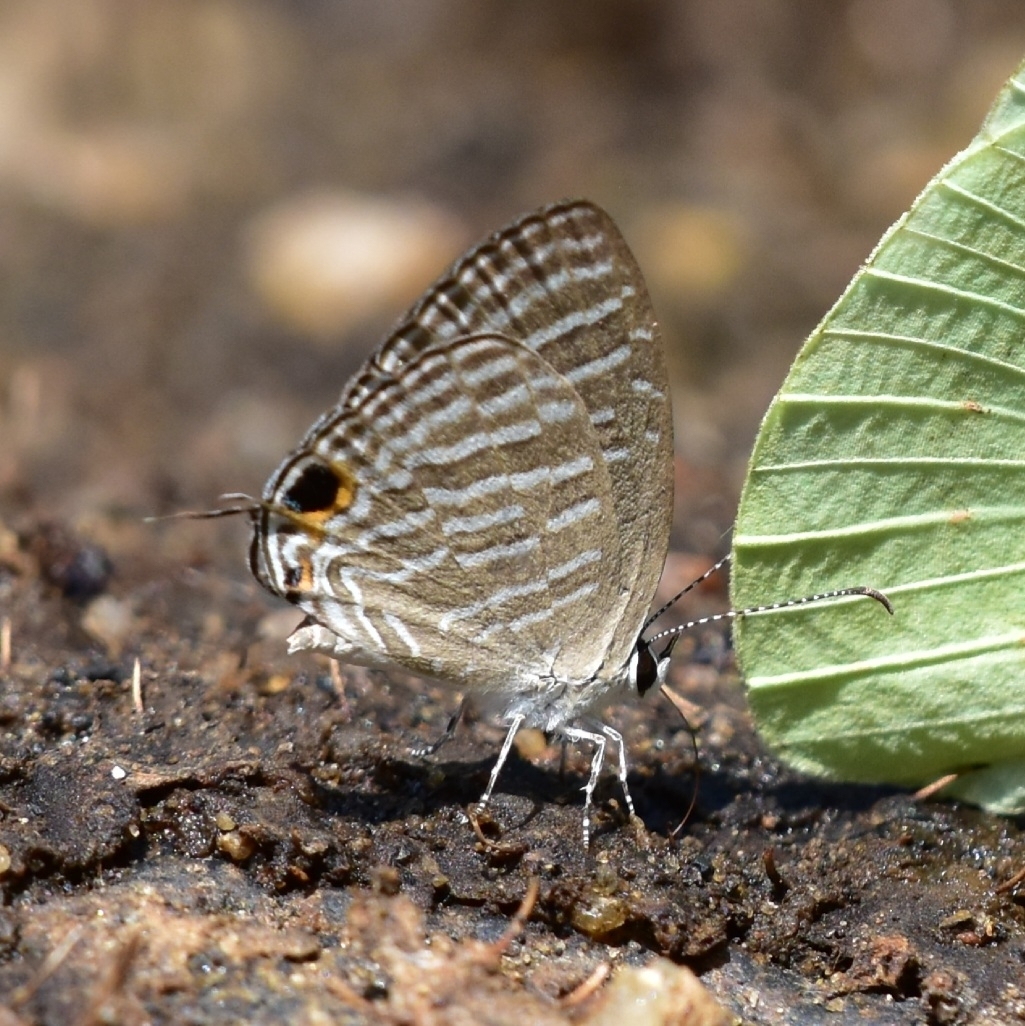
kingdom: Animalia
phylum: Arthropoda
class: Insecta
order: Lepidoptera
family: Lycaenidae
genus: Jamides
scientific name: Jamides celeno
